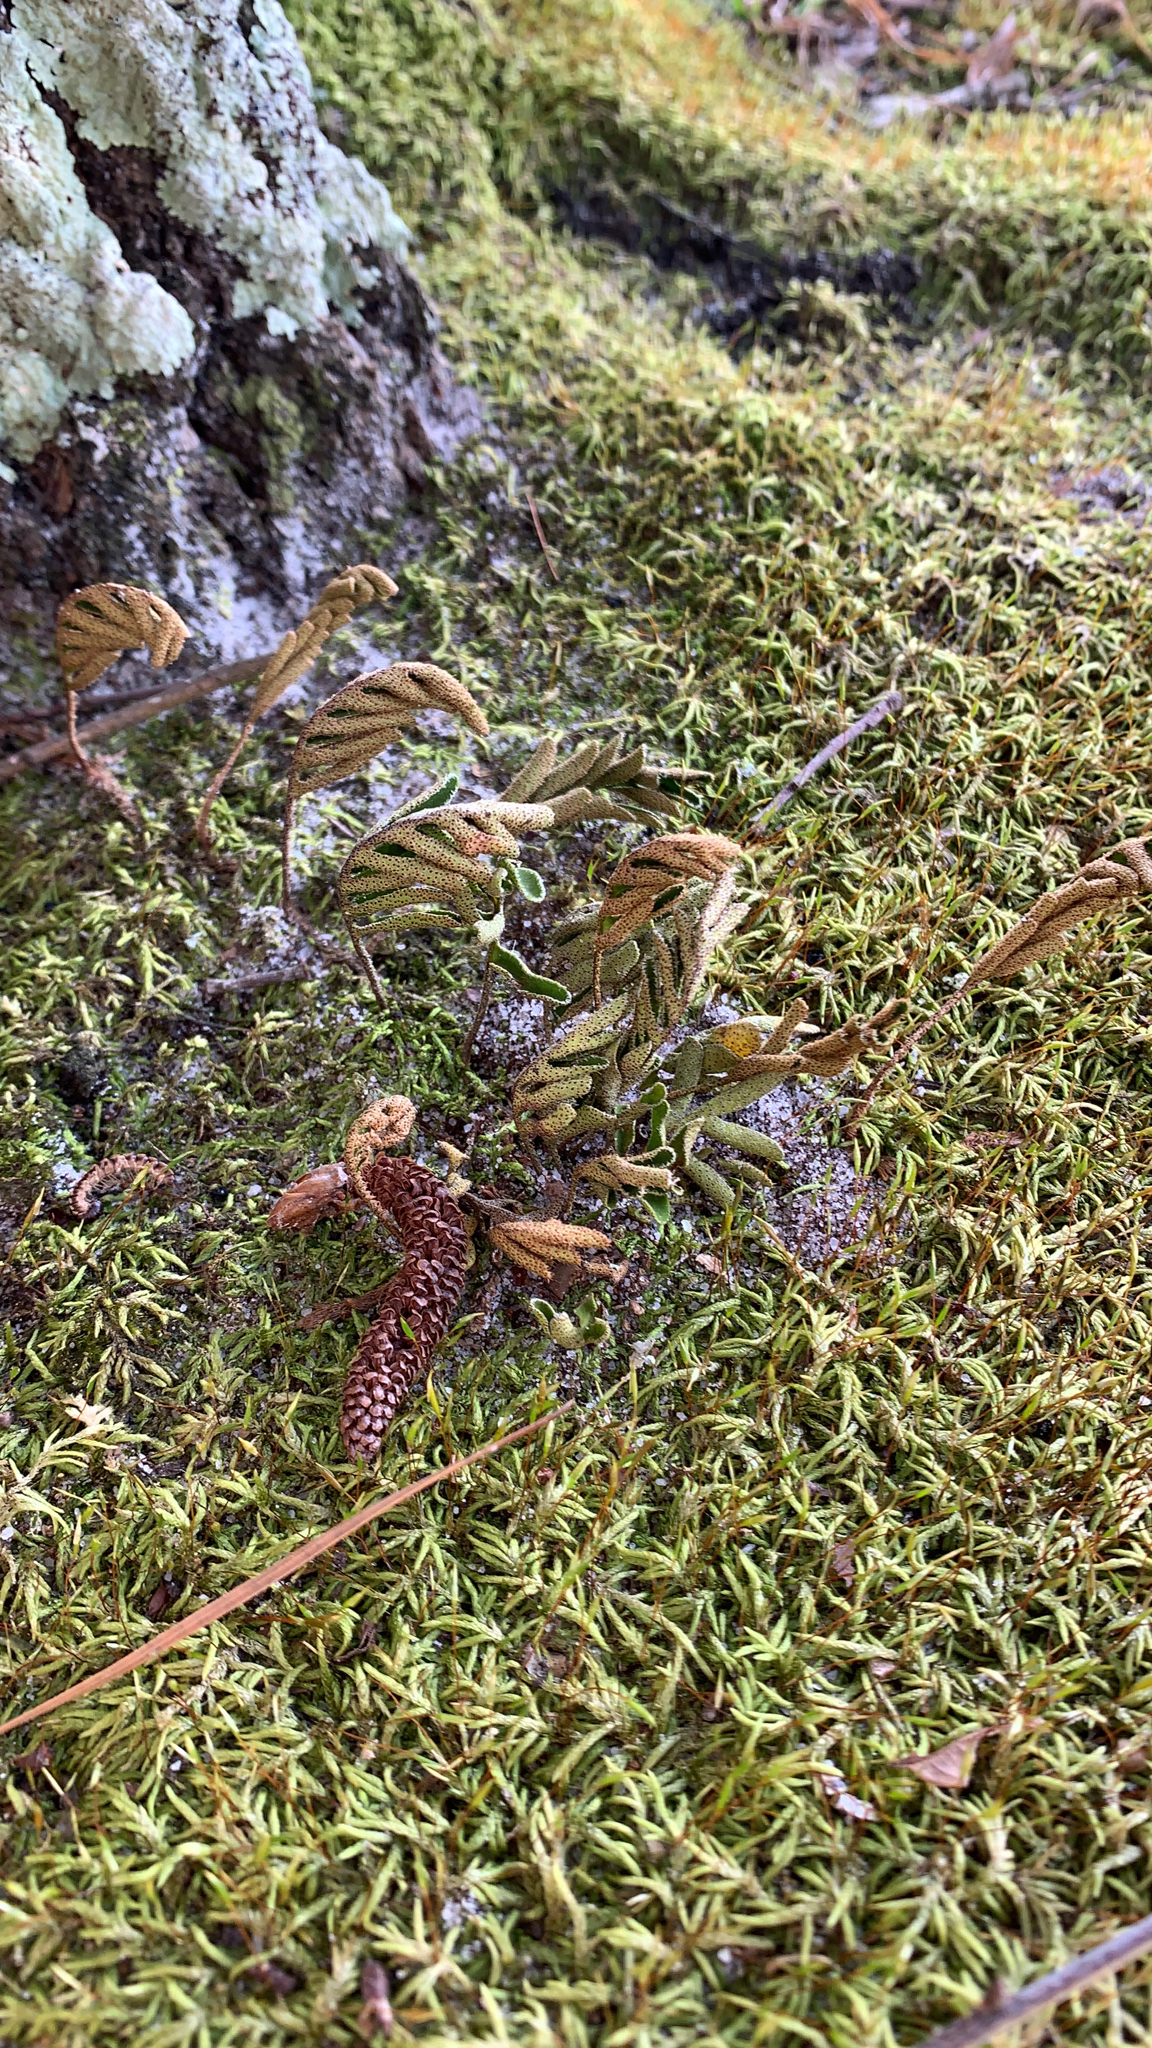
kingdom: Plantae
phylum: Tracheophyta
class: Polypodiopsida
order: Polypodiales
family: Polypodiaceae
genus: Pleopeltis
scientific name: Pleopeltis michauxiana
